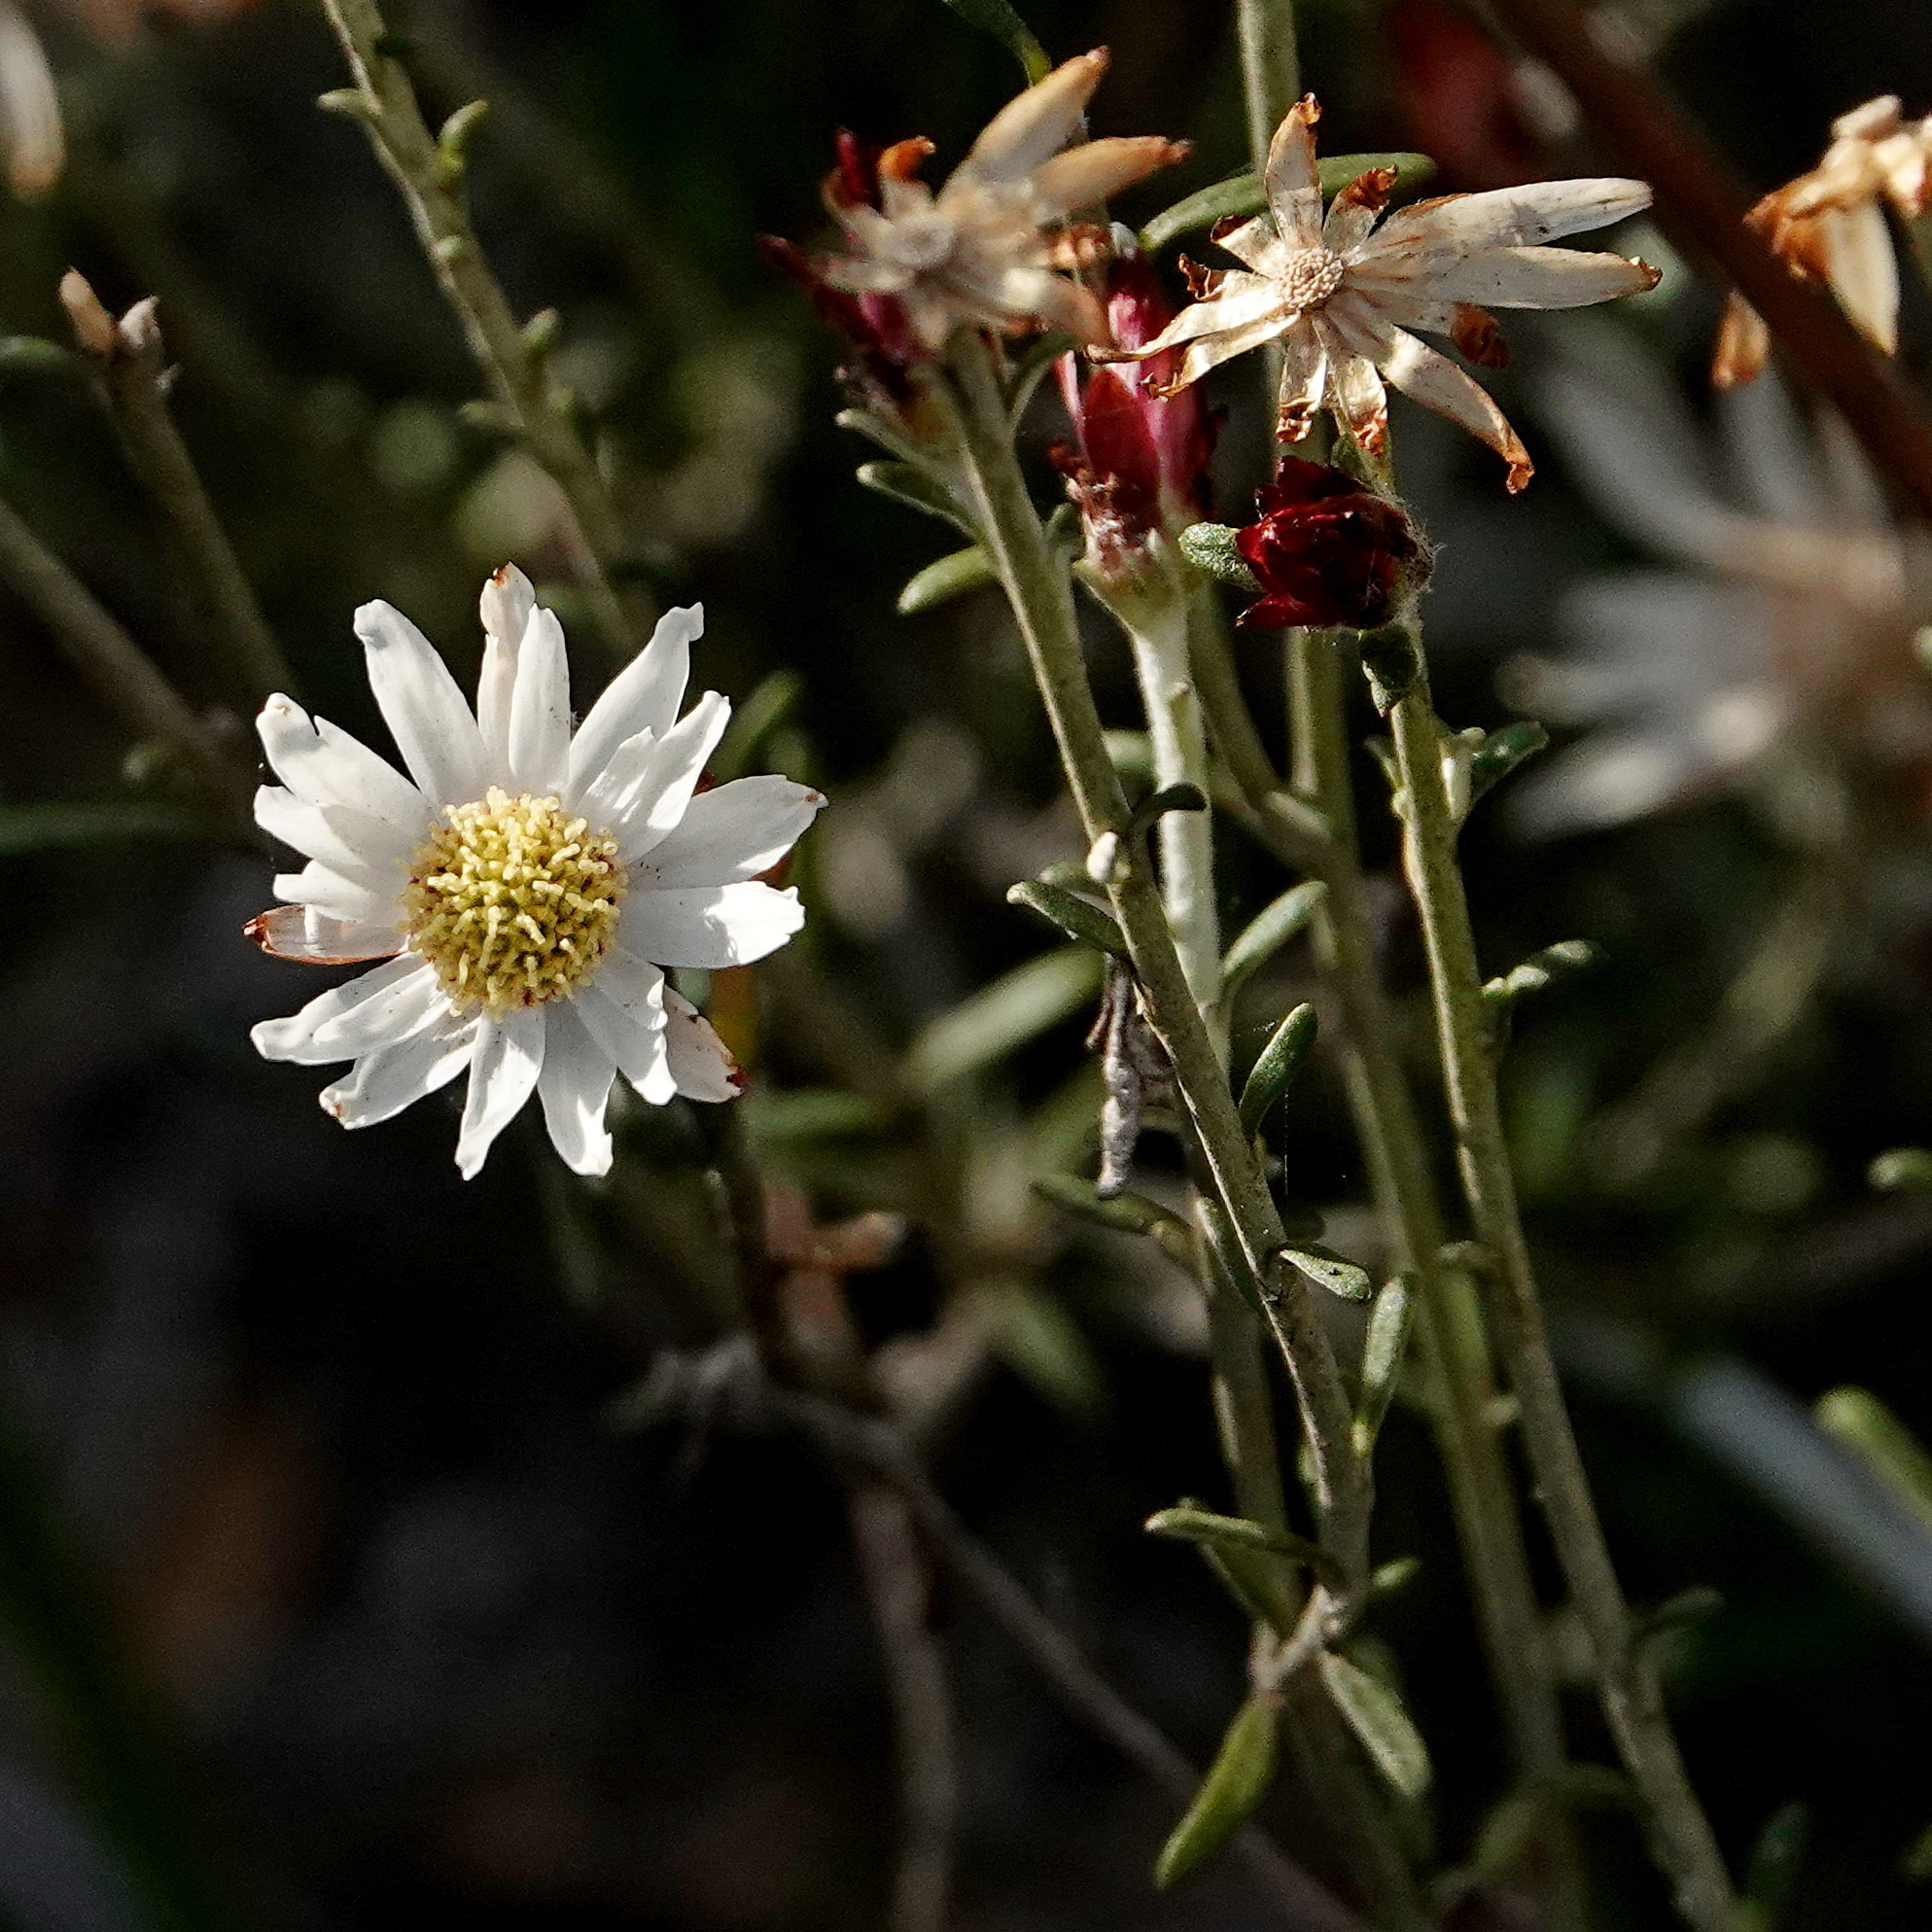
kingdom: Plantae
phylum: Tracheophyta
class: Magnoliopsida
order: Asterales
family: Asteraceae
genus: Argentipallium
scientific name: Argentipallium obtusifolium
